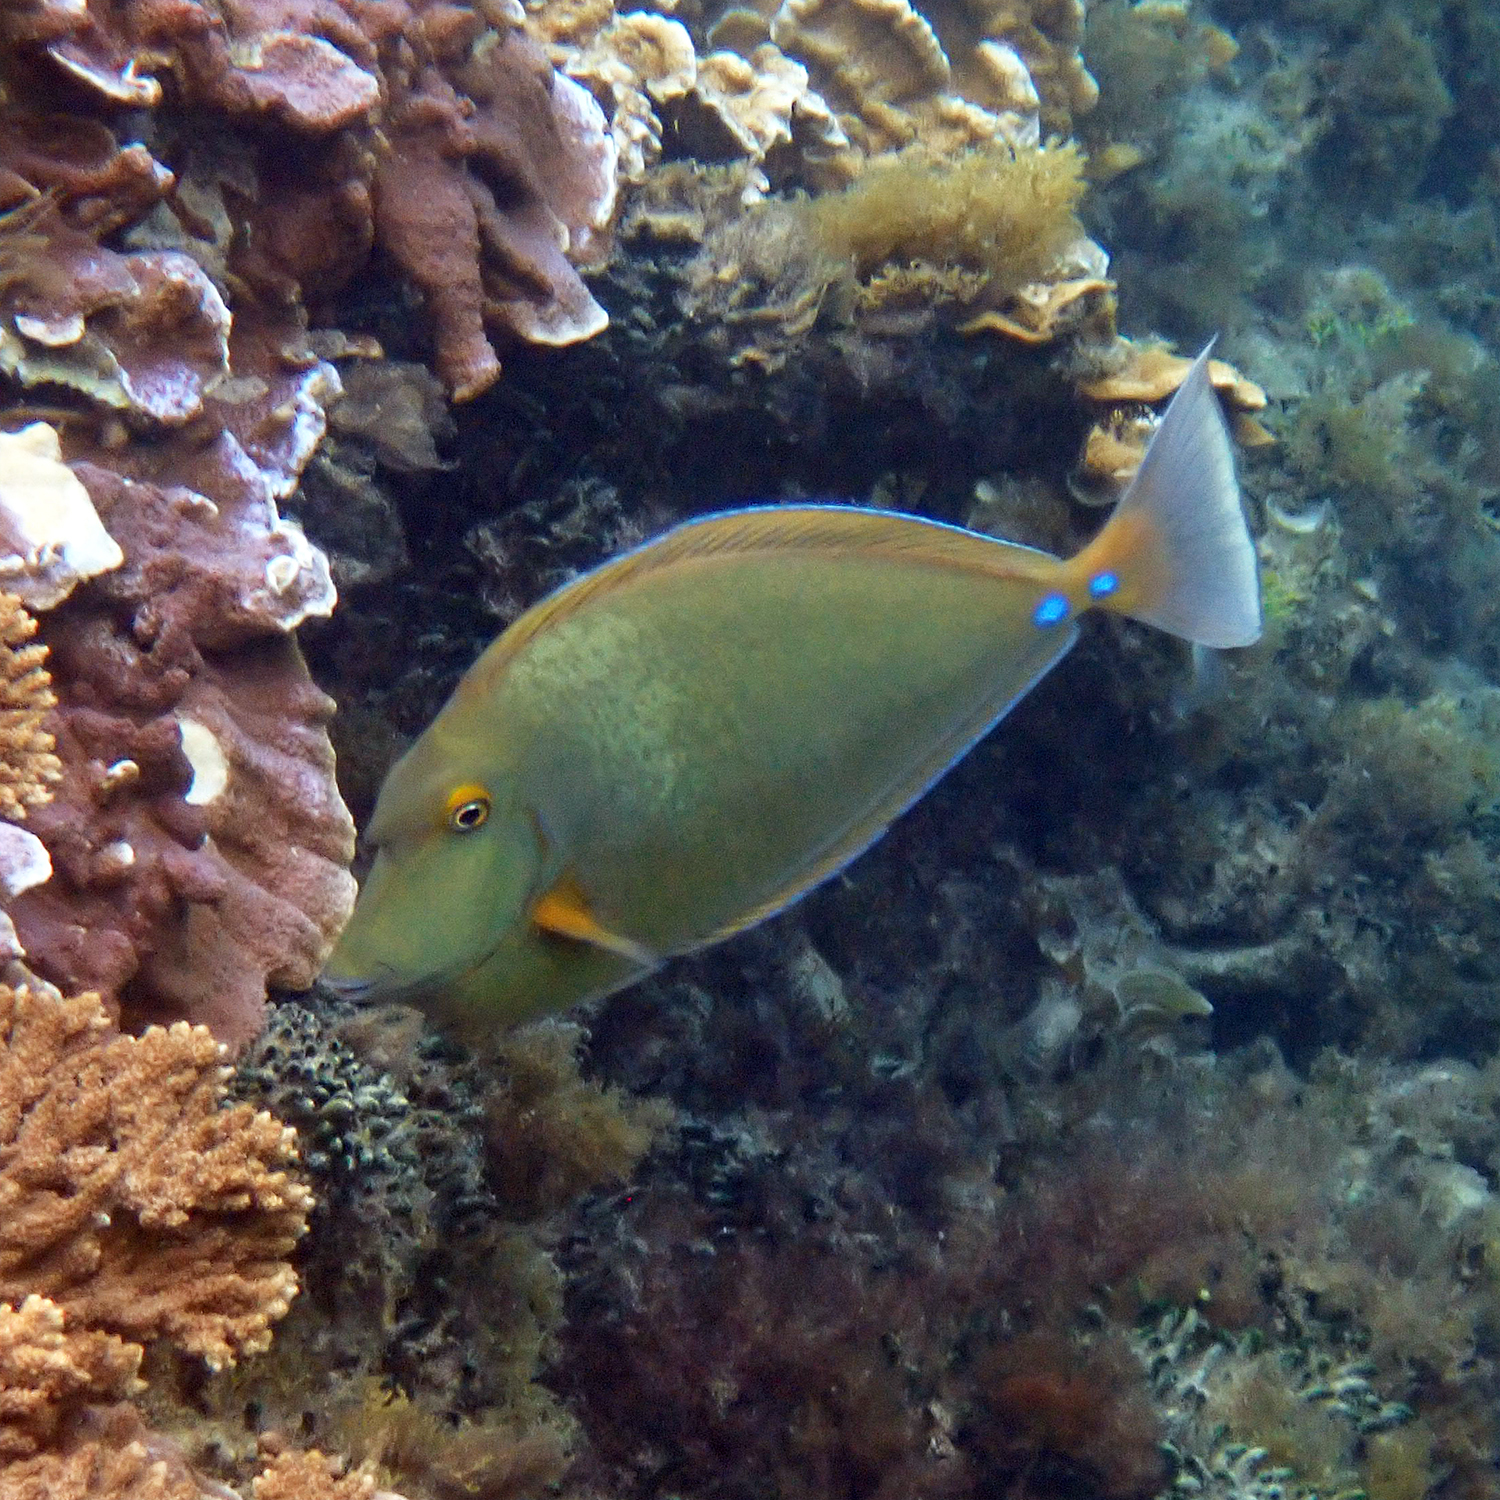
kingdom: Animalia
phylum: Chordata
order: Perciformes
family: Acanthuridae
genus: Naso
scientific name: Naso unicornis
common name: Bluespine unicornfish
